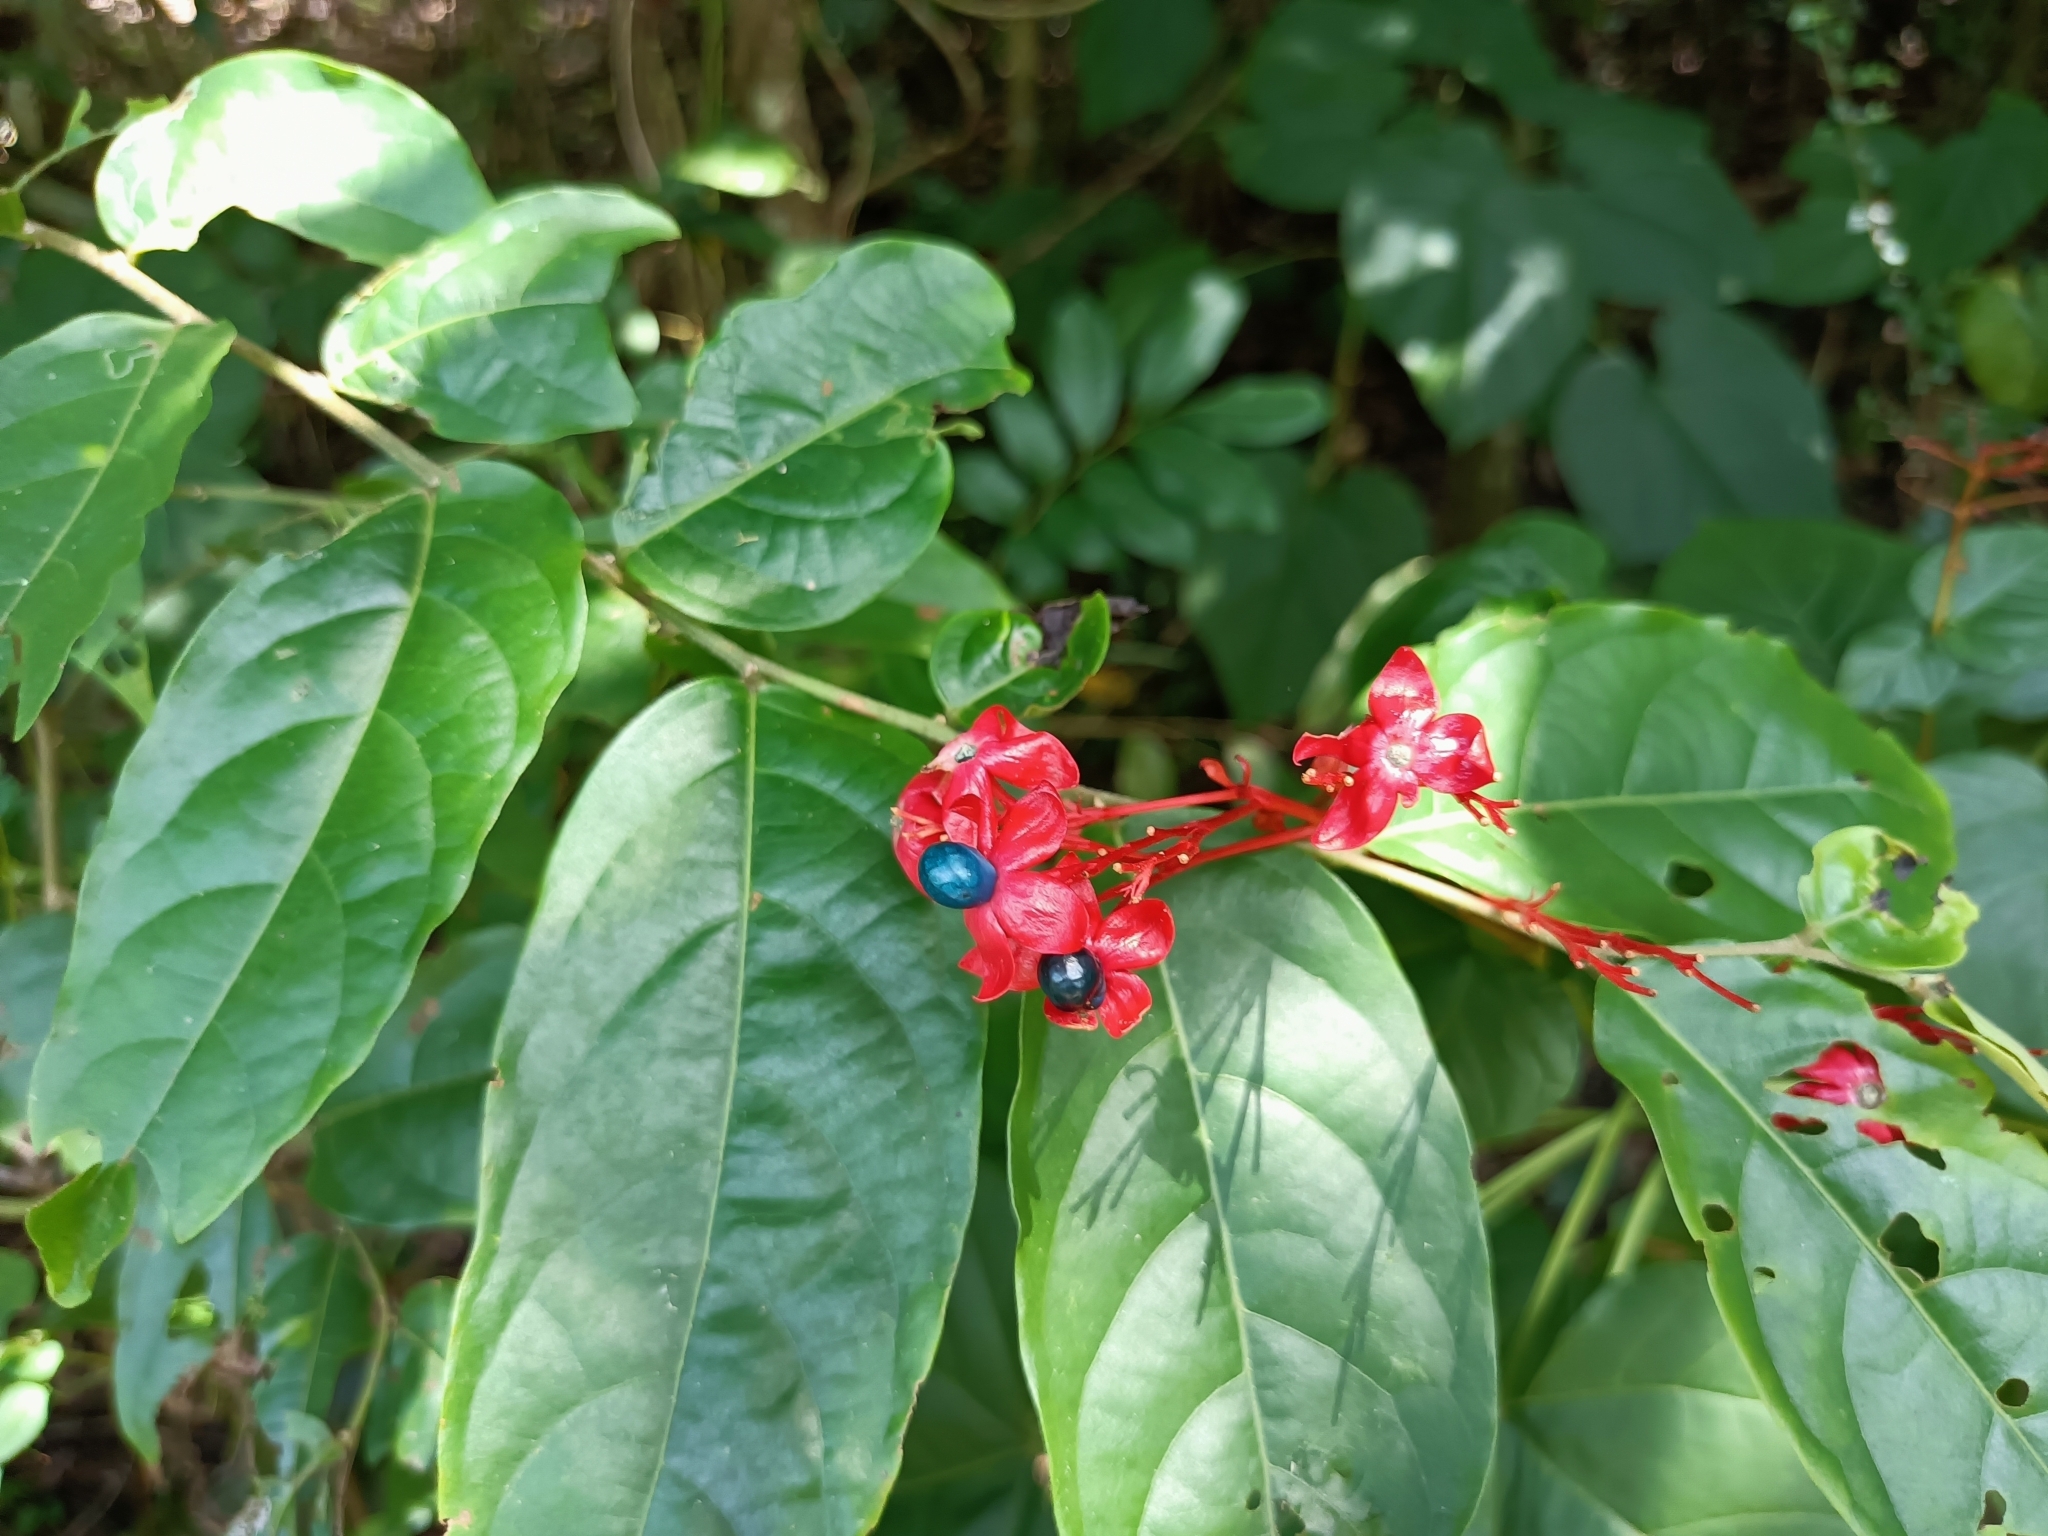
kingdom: Plantae
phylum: Tracheophyta
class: Magnoliopsida
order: Lamiales
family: Lamiaceae
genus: Clerodendrum
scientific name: Clerodendrum japonicum
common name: Japanese glorybower
